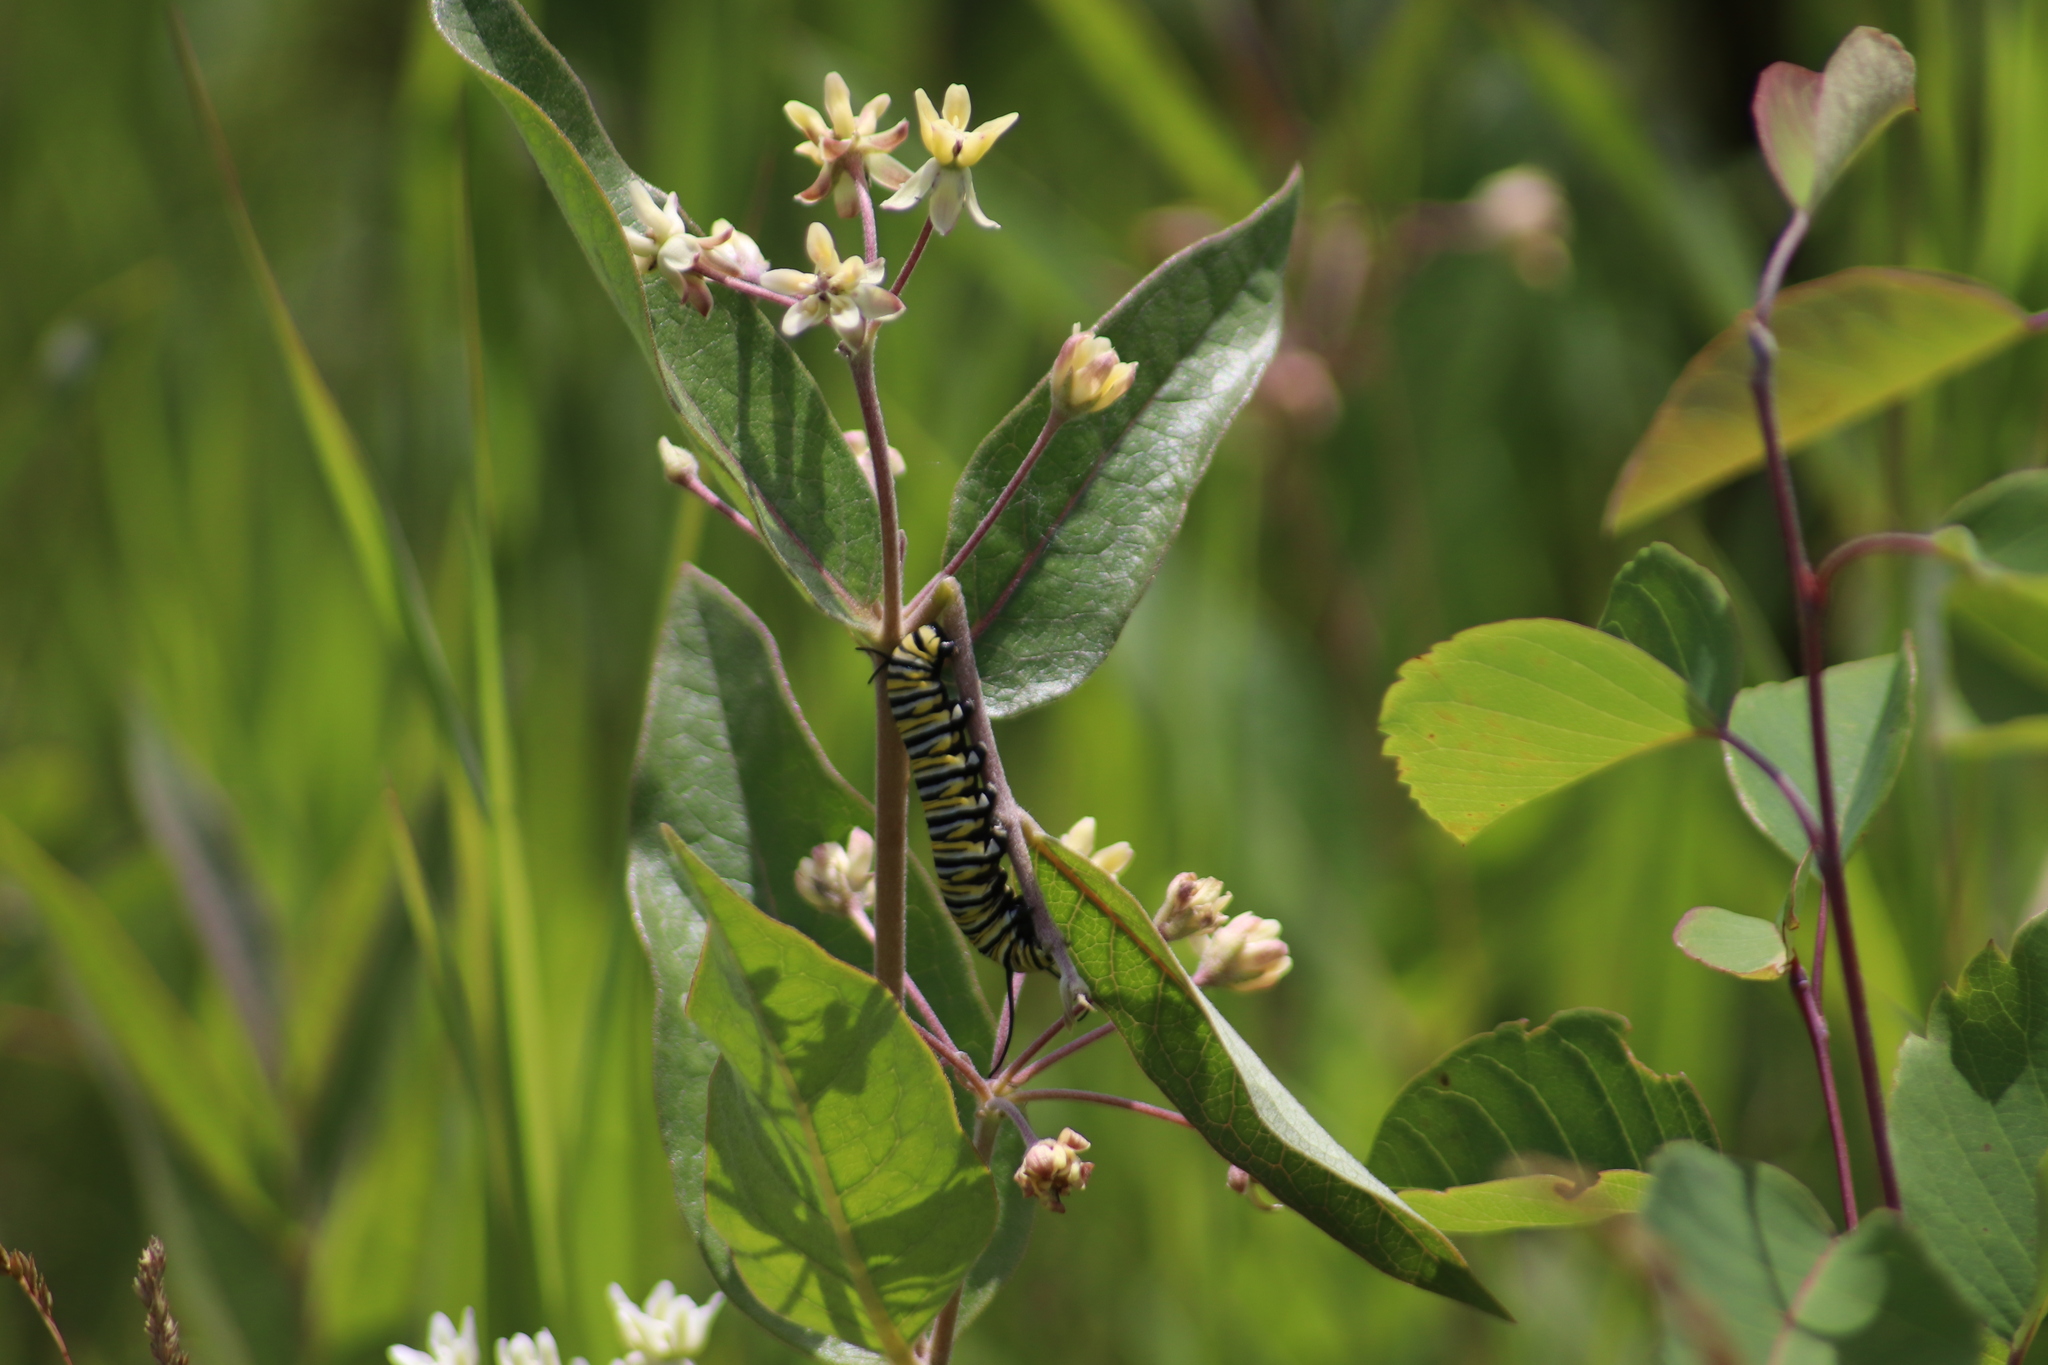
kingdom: Animalia
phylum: Arthropoda
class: Insecta
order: Lepidoptera
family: Nymphalidae
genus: Danaus
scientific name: Danaus plexippus
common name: Monarch
